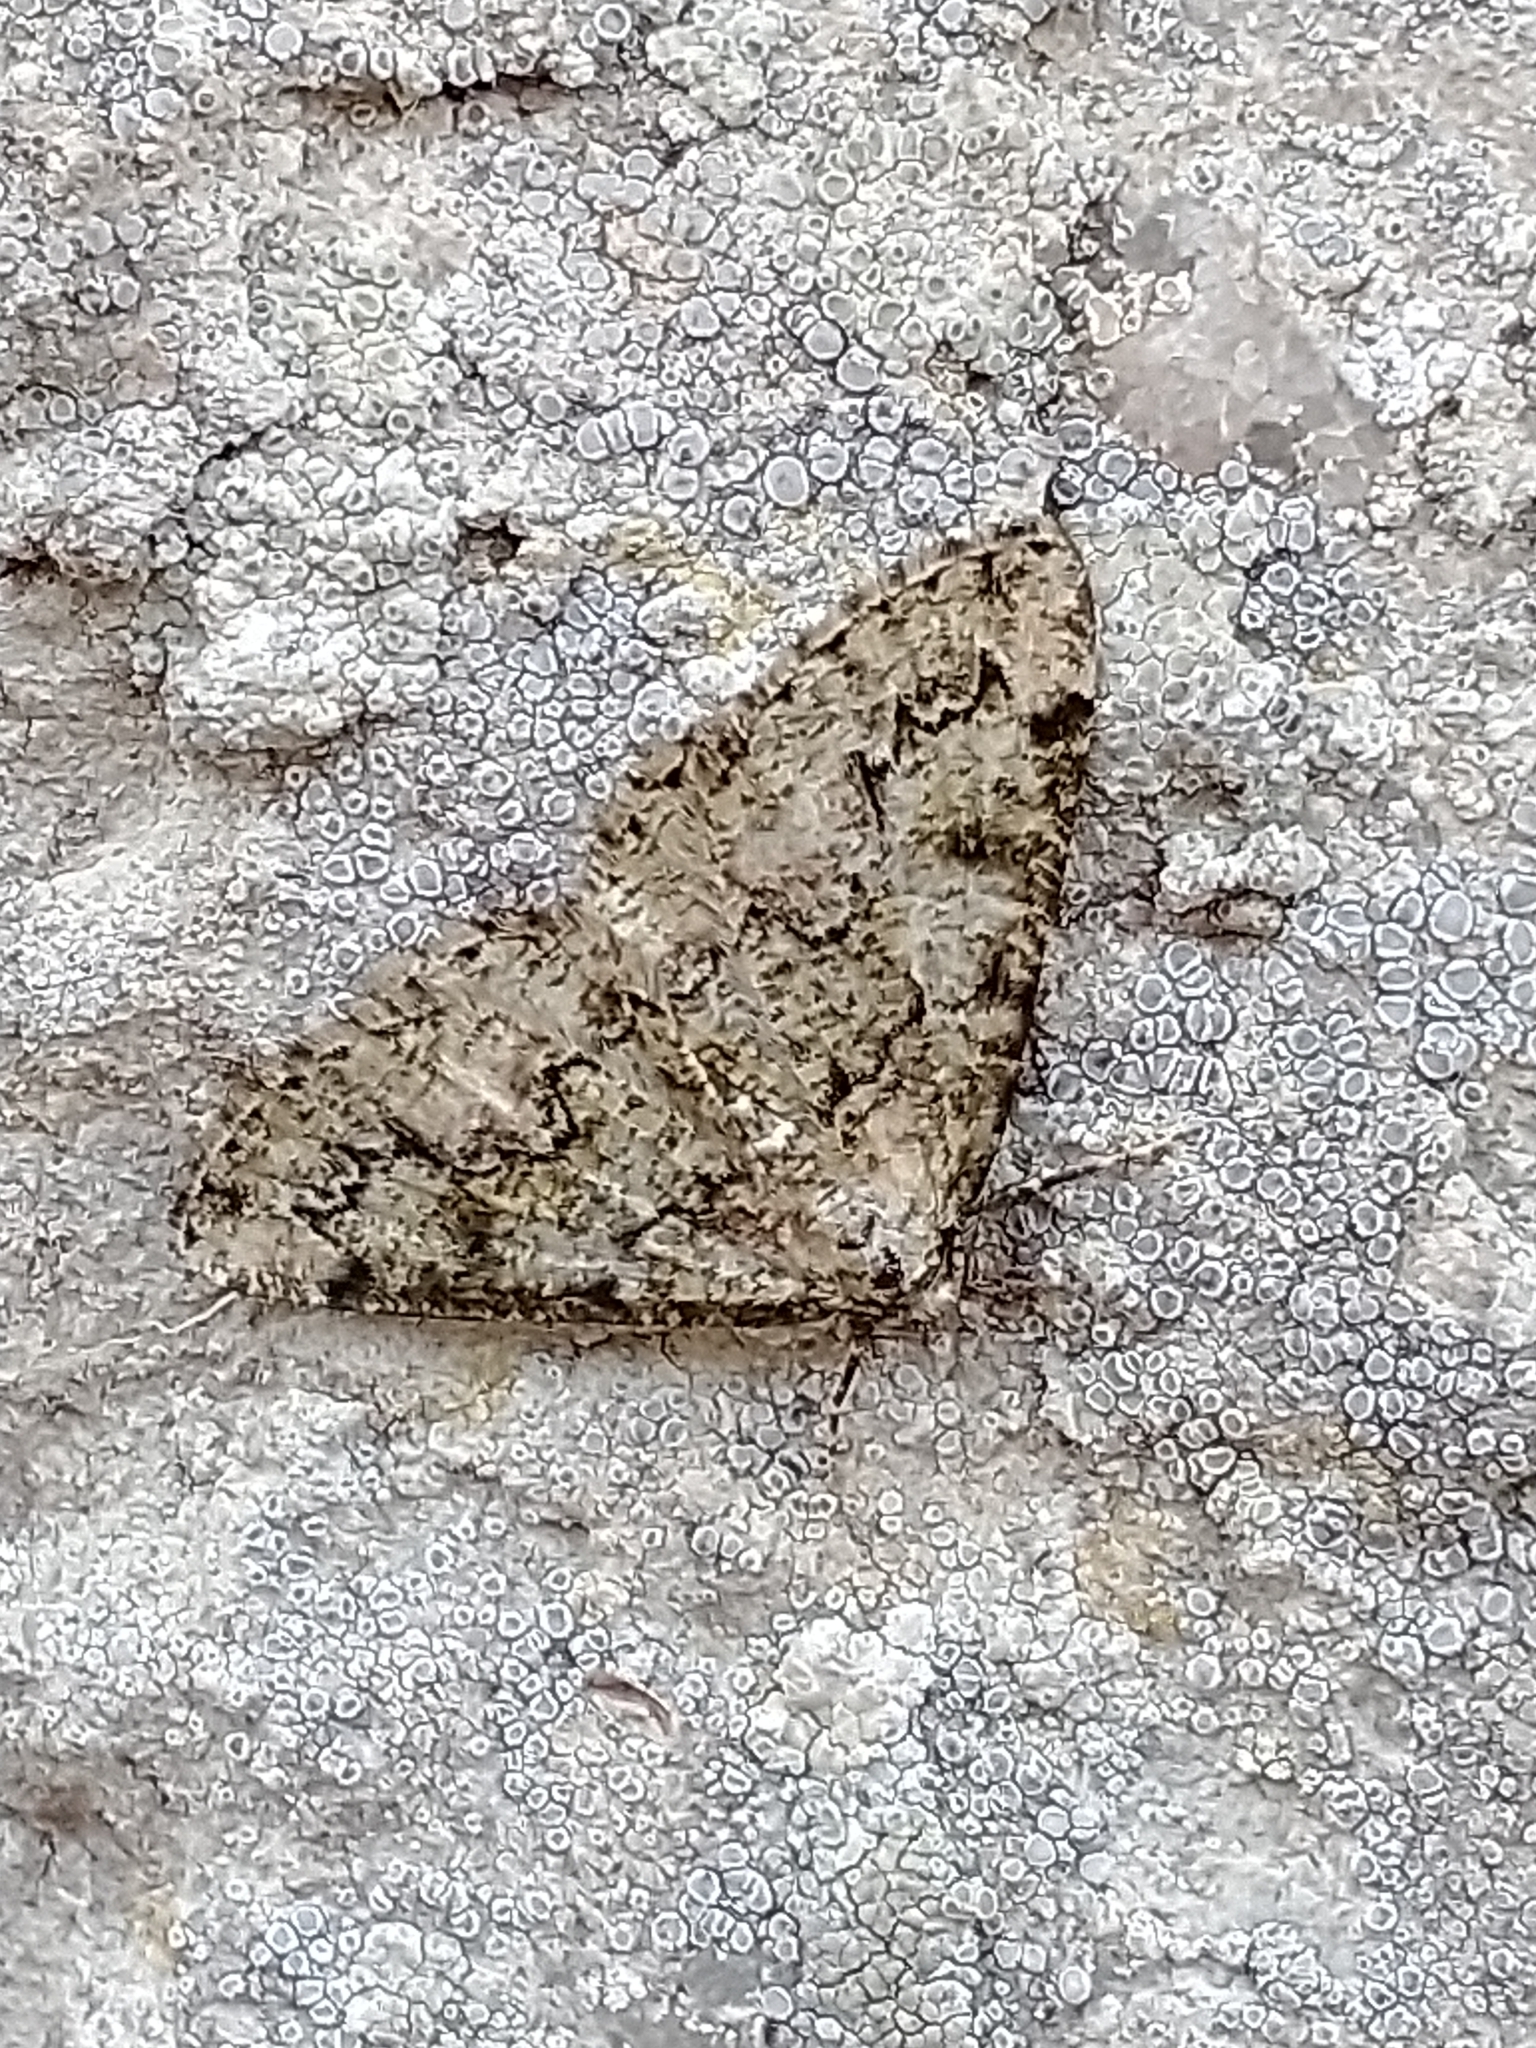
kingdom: Animalia
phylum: Arthropoda
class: Insecta
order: Lepidoptera
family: Geometridae
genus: Cleorodes
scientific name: Cleorodes lichenaria
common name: Brussels lace
